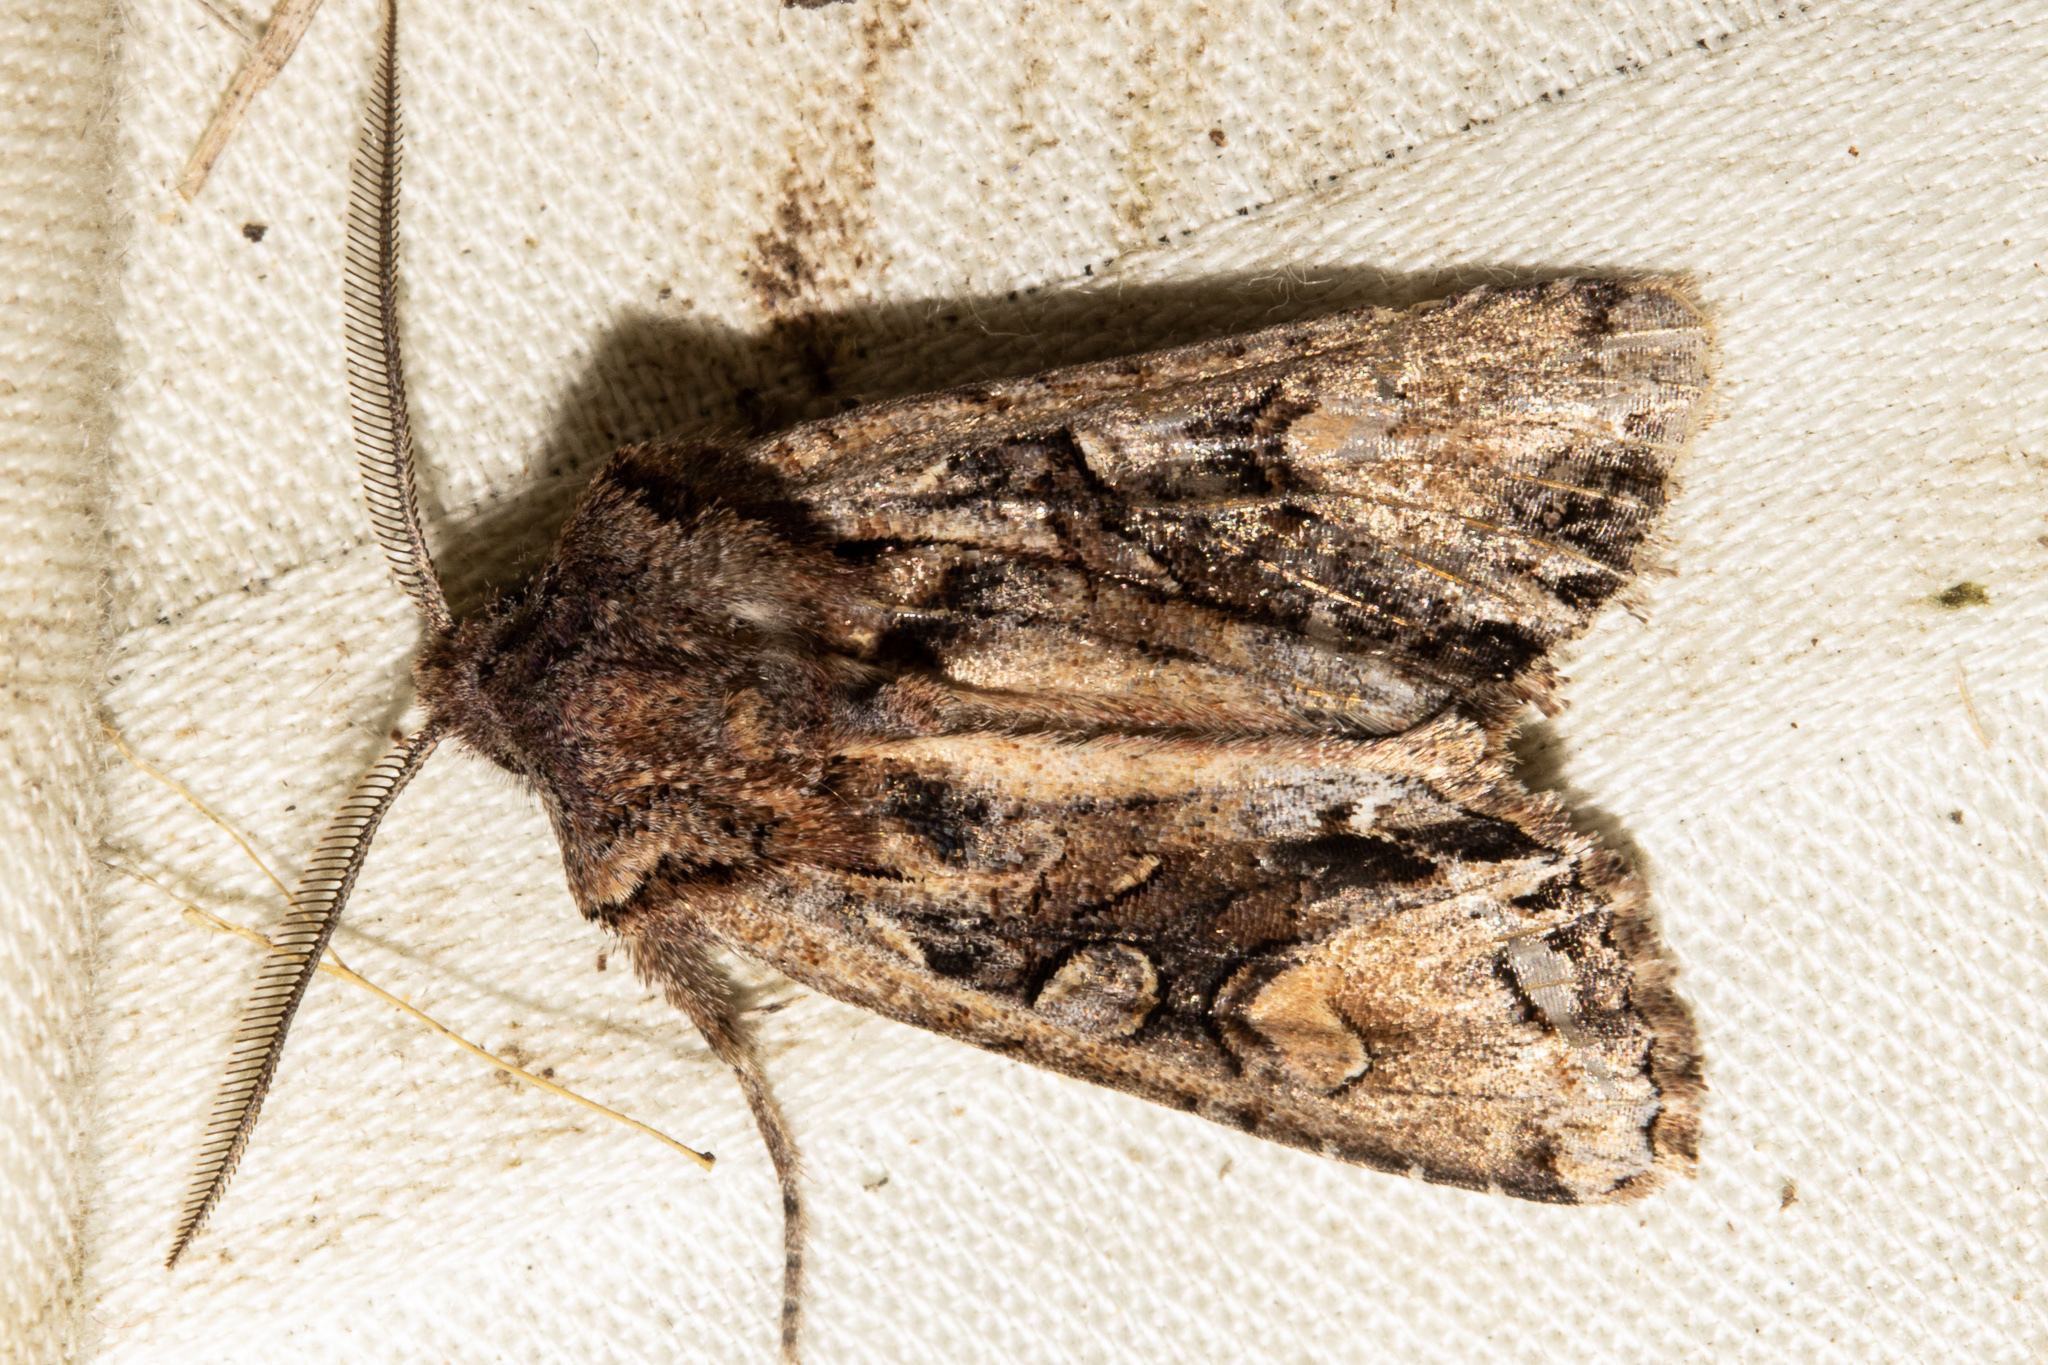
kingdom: Animalia
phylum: Arthropoda
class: Insecta
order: Lepidoptera
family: Noctuidae
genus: Ichneutica
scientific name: Ichneutica
